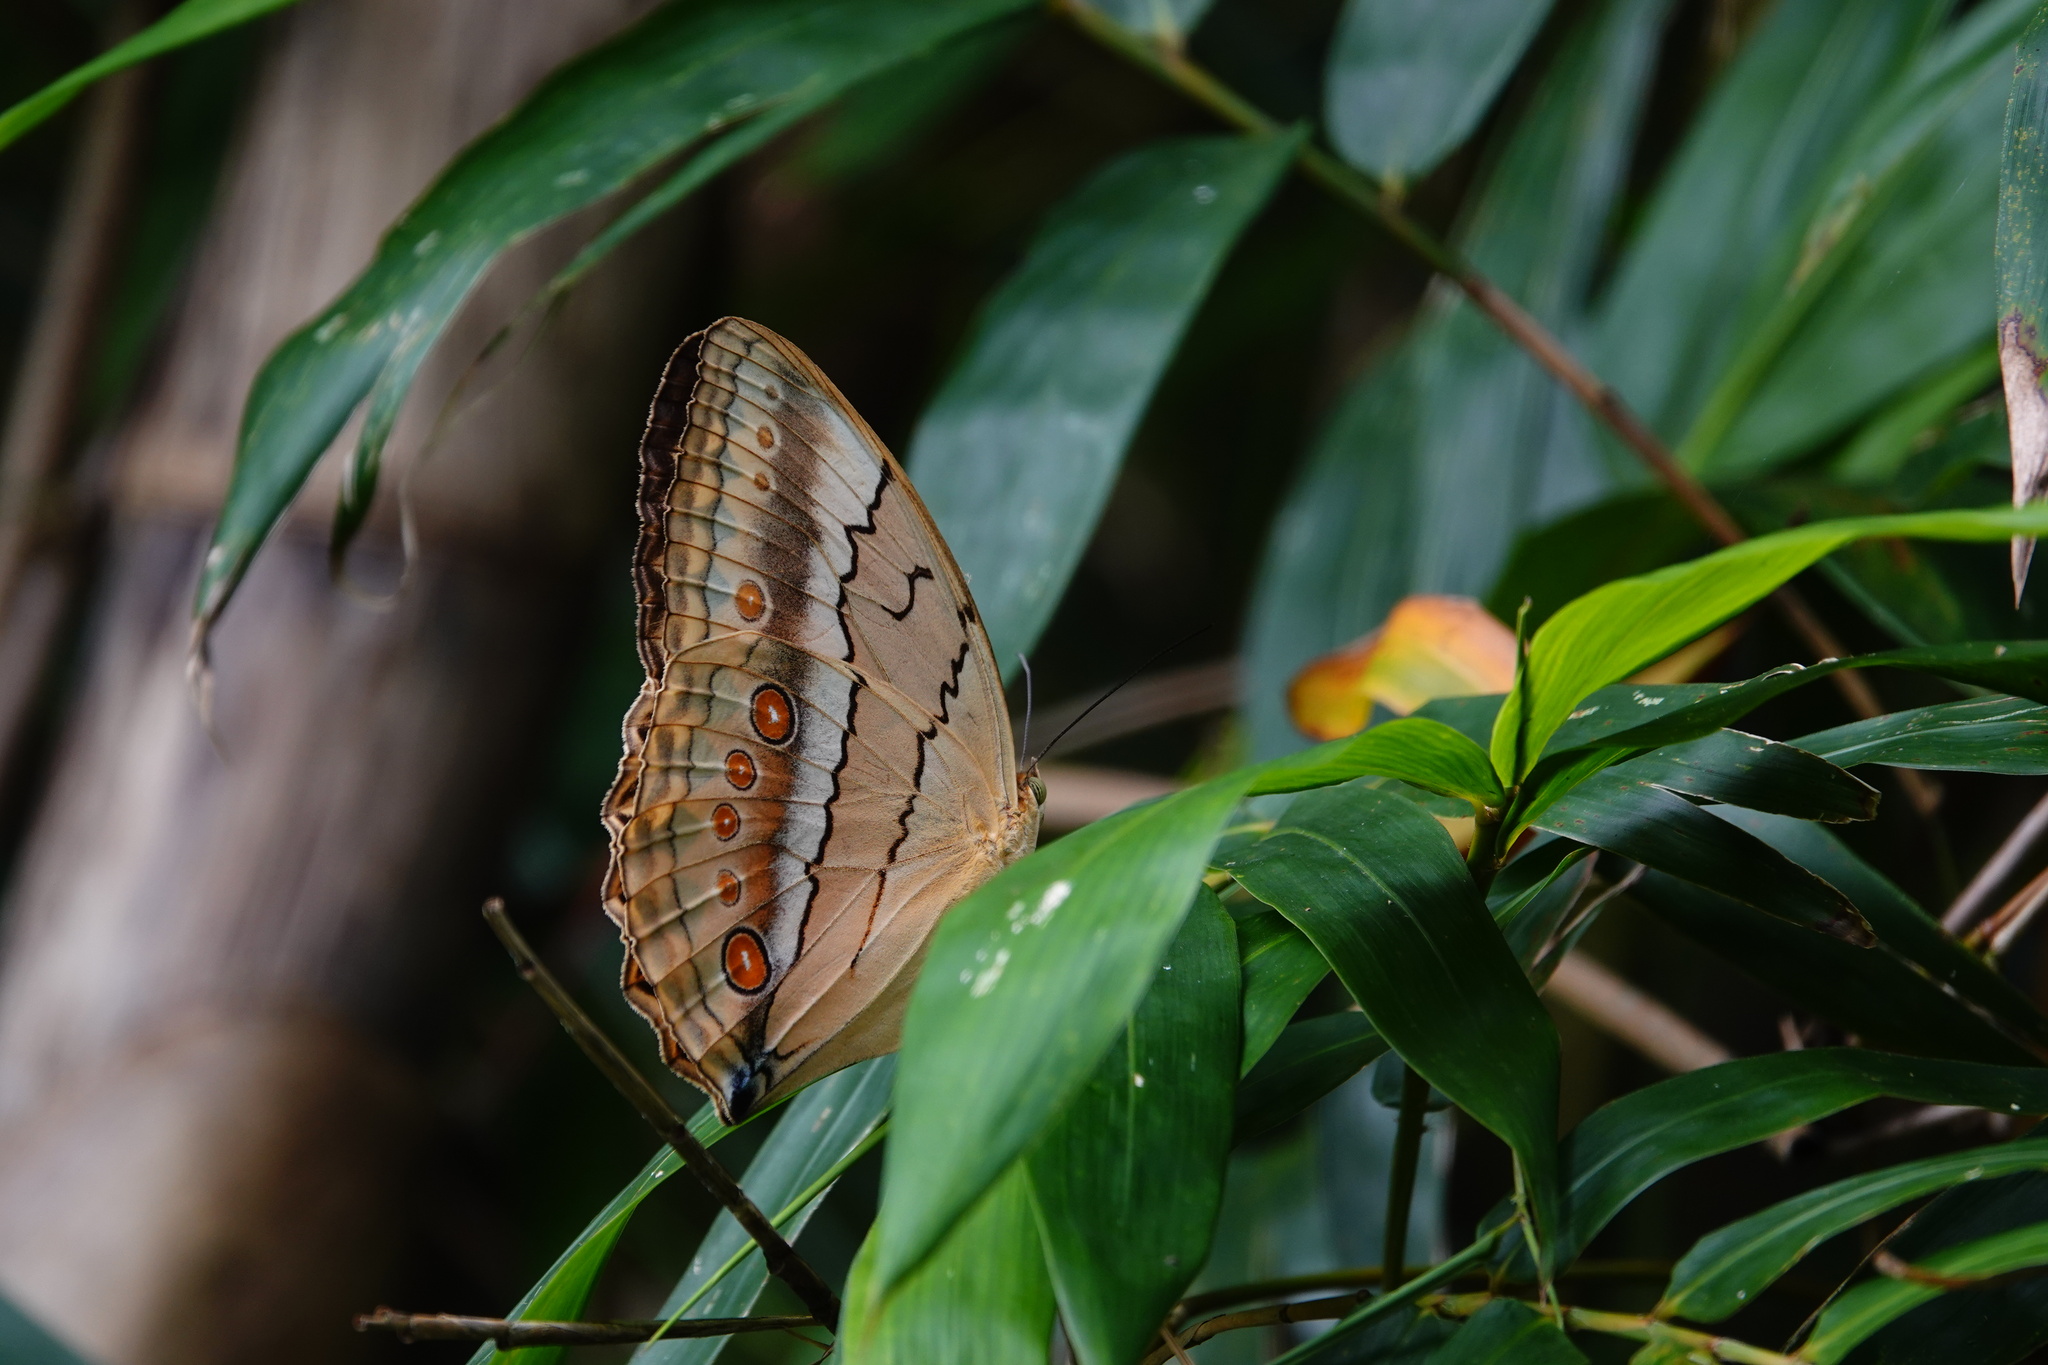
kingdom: Animalia
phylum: Arthropoda
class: Insecta
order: Lepidoptera
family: Nymphalidae
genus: Stichophthalma
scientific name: Stichophthalma howqua
